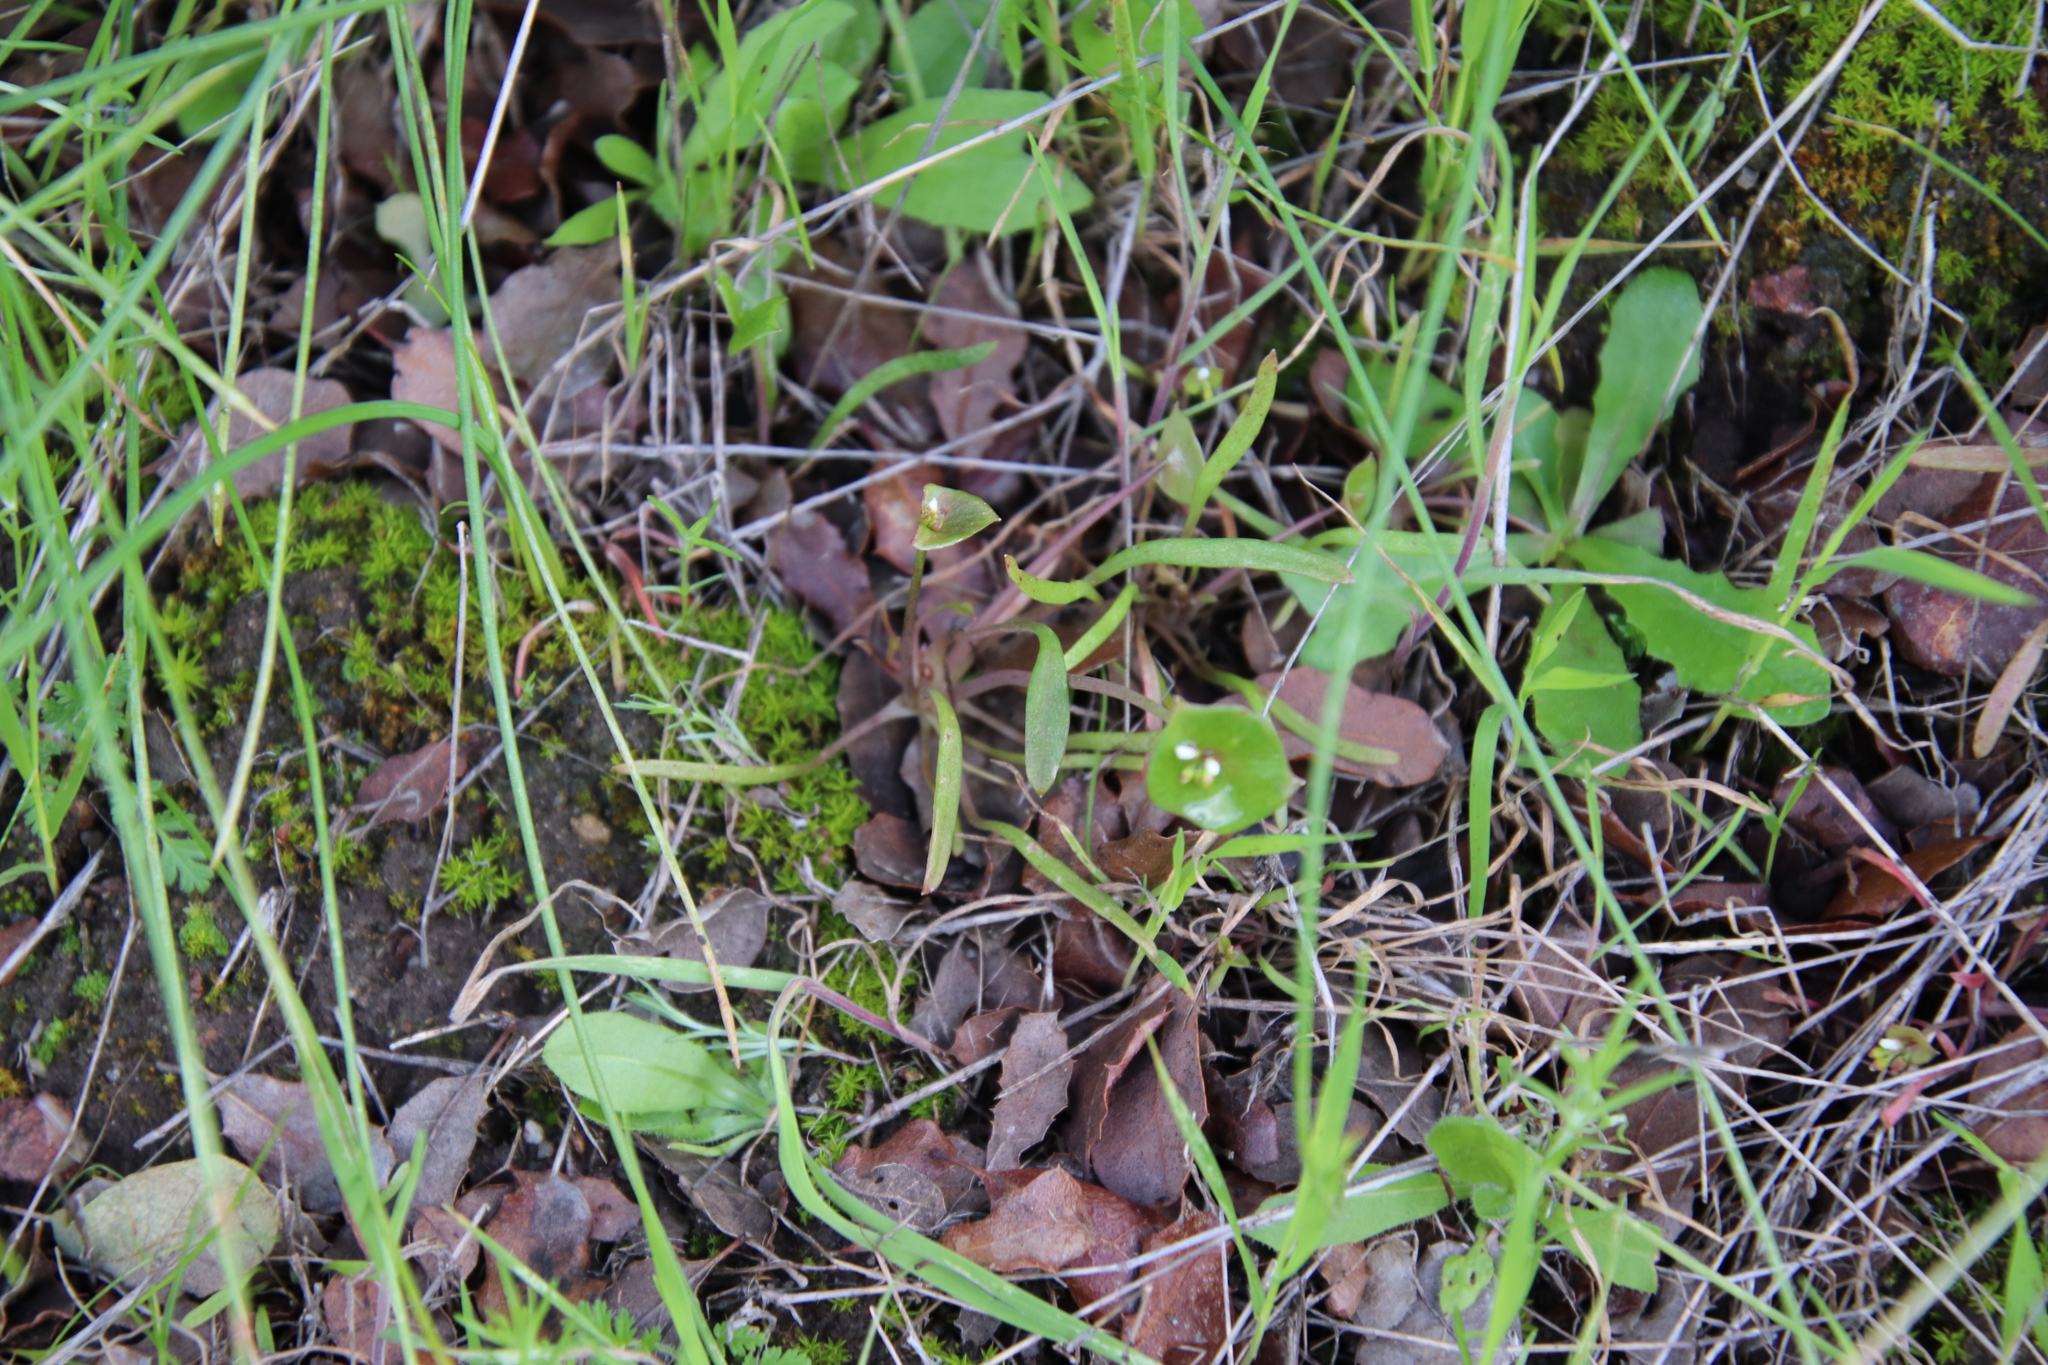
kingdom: Plantae
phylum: Tracheophyta
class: Magnoliopsida
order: Caryophyllales
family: Montiaceae
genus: Claytonia
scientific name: Claytonia parviflora
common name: Indian-lettuce
